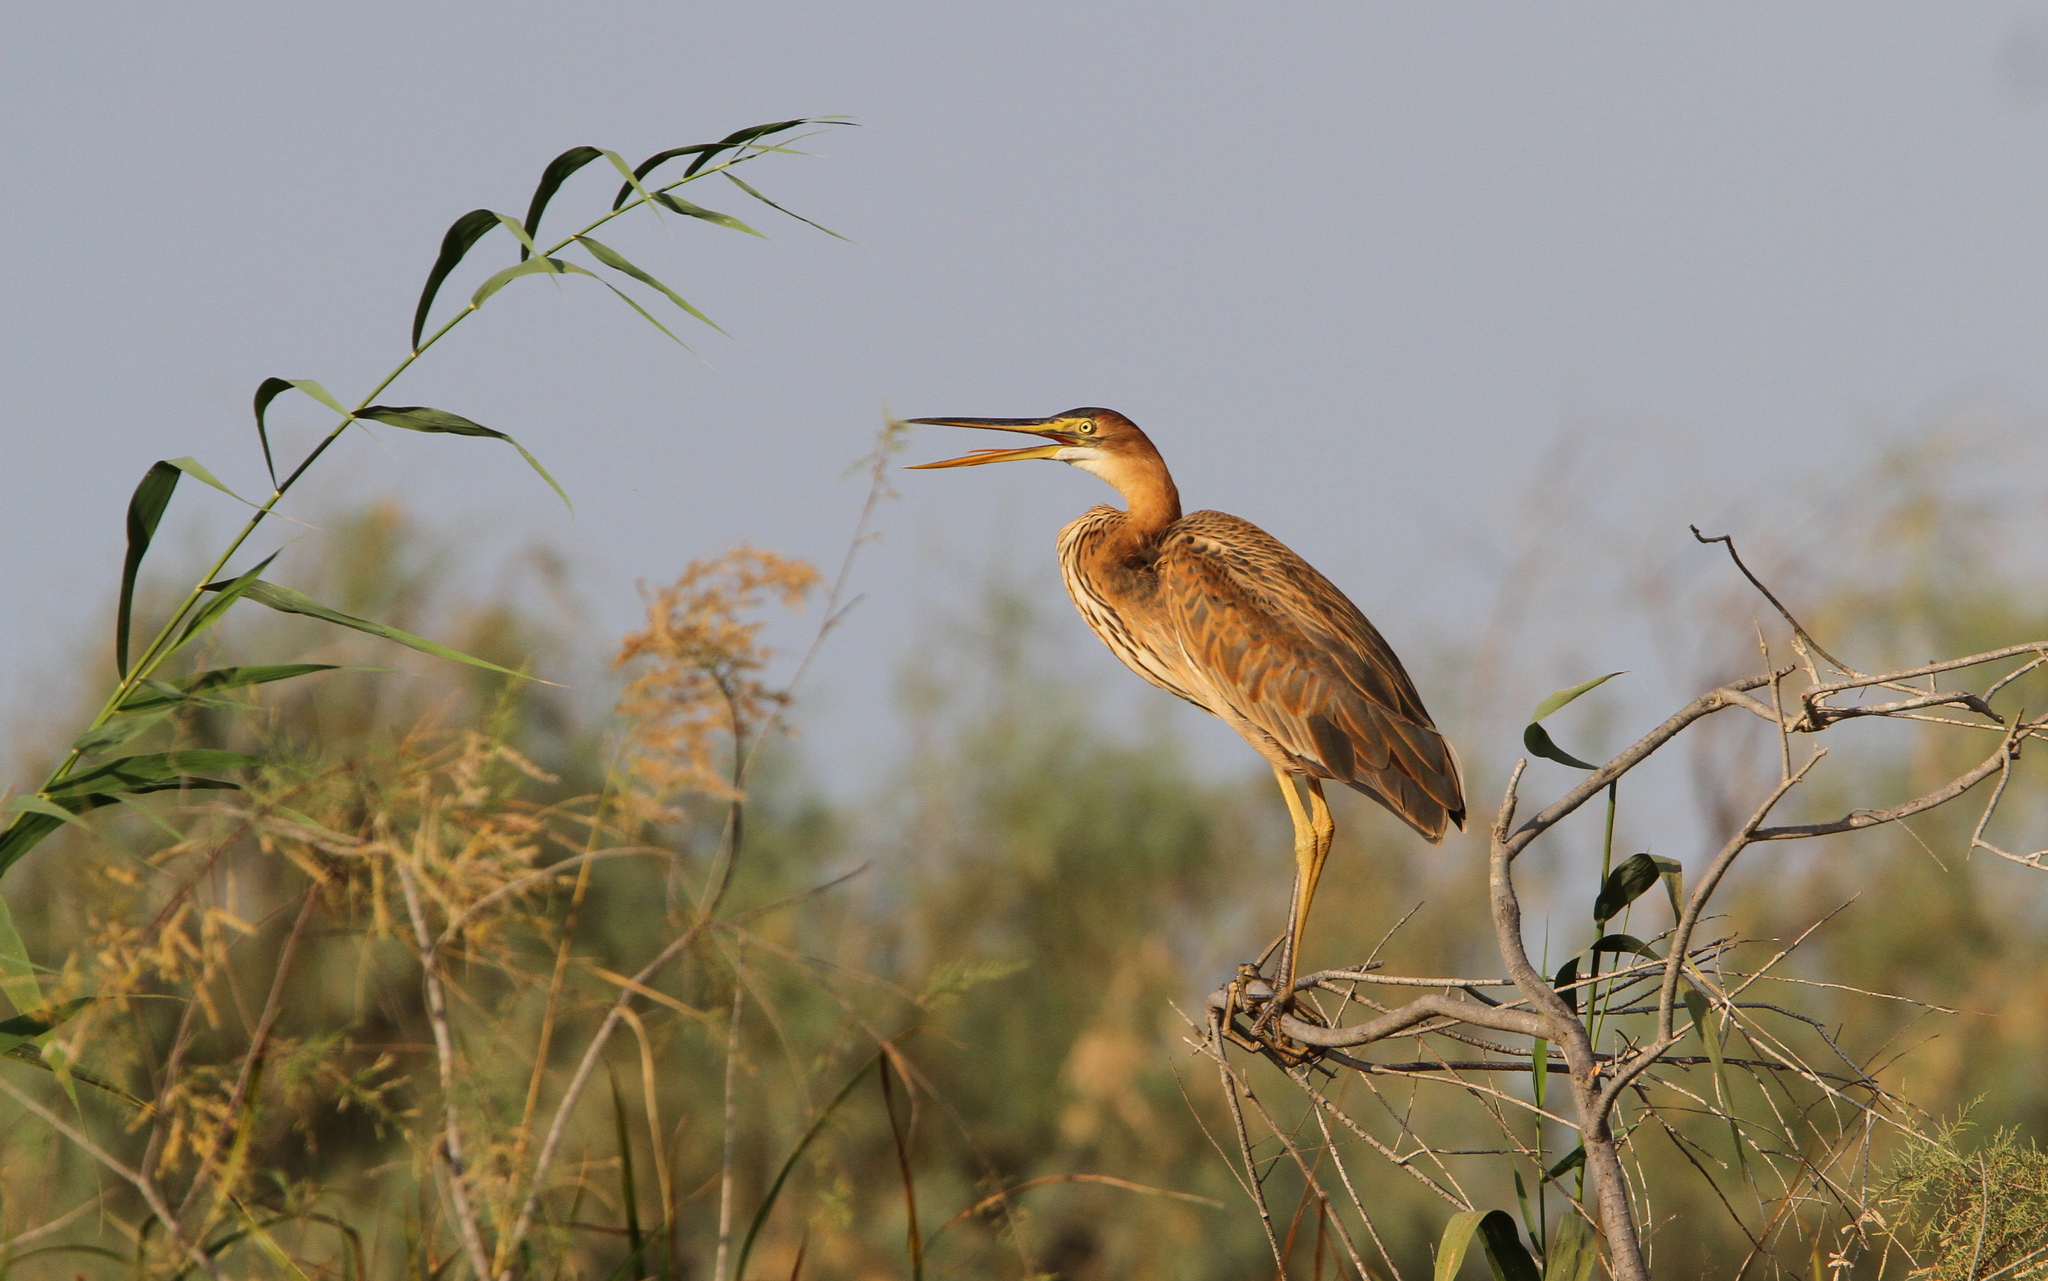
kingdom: Animalia
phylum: Chordata
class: Aves
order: Pelecaniformes
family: Ardeidae
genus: Ardea
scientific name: Ardea purpurea
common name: Purple heron
